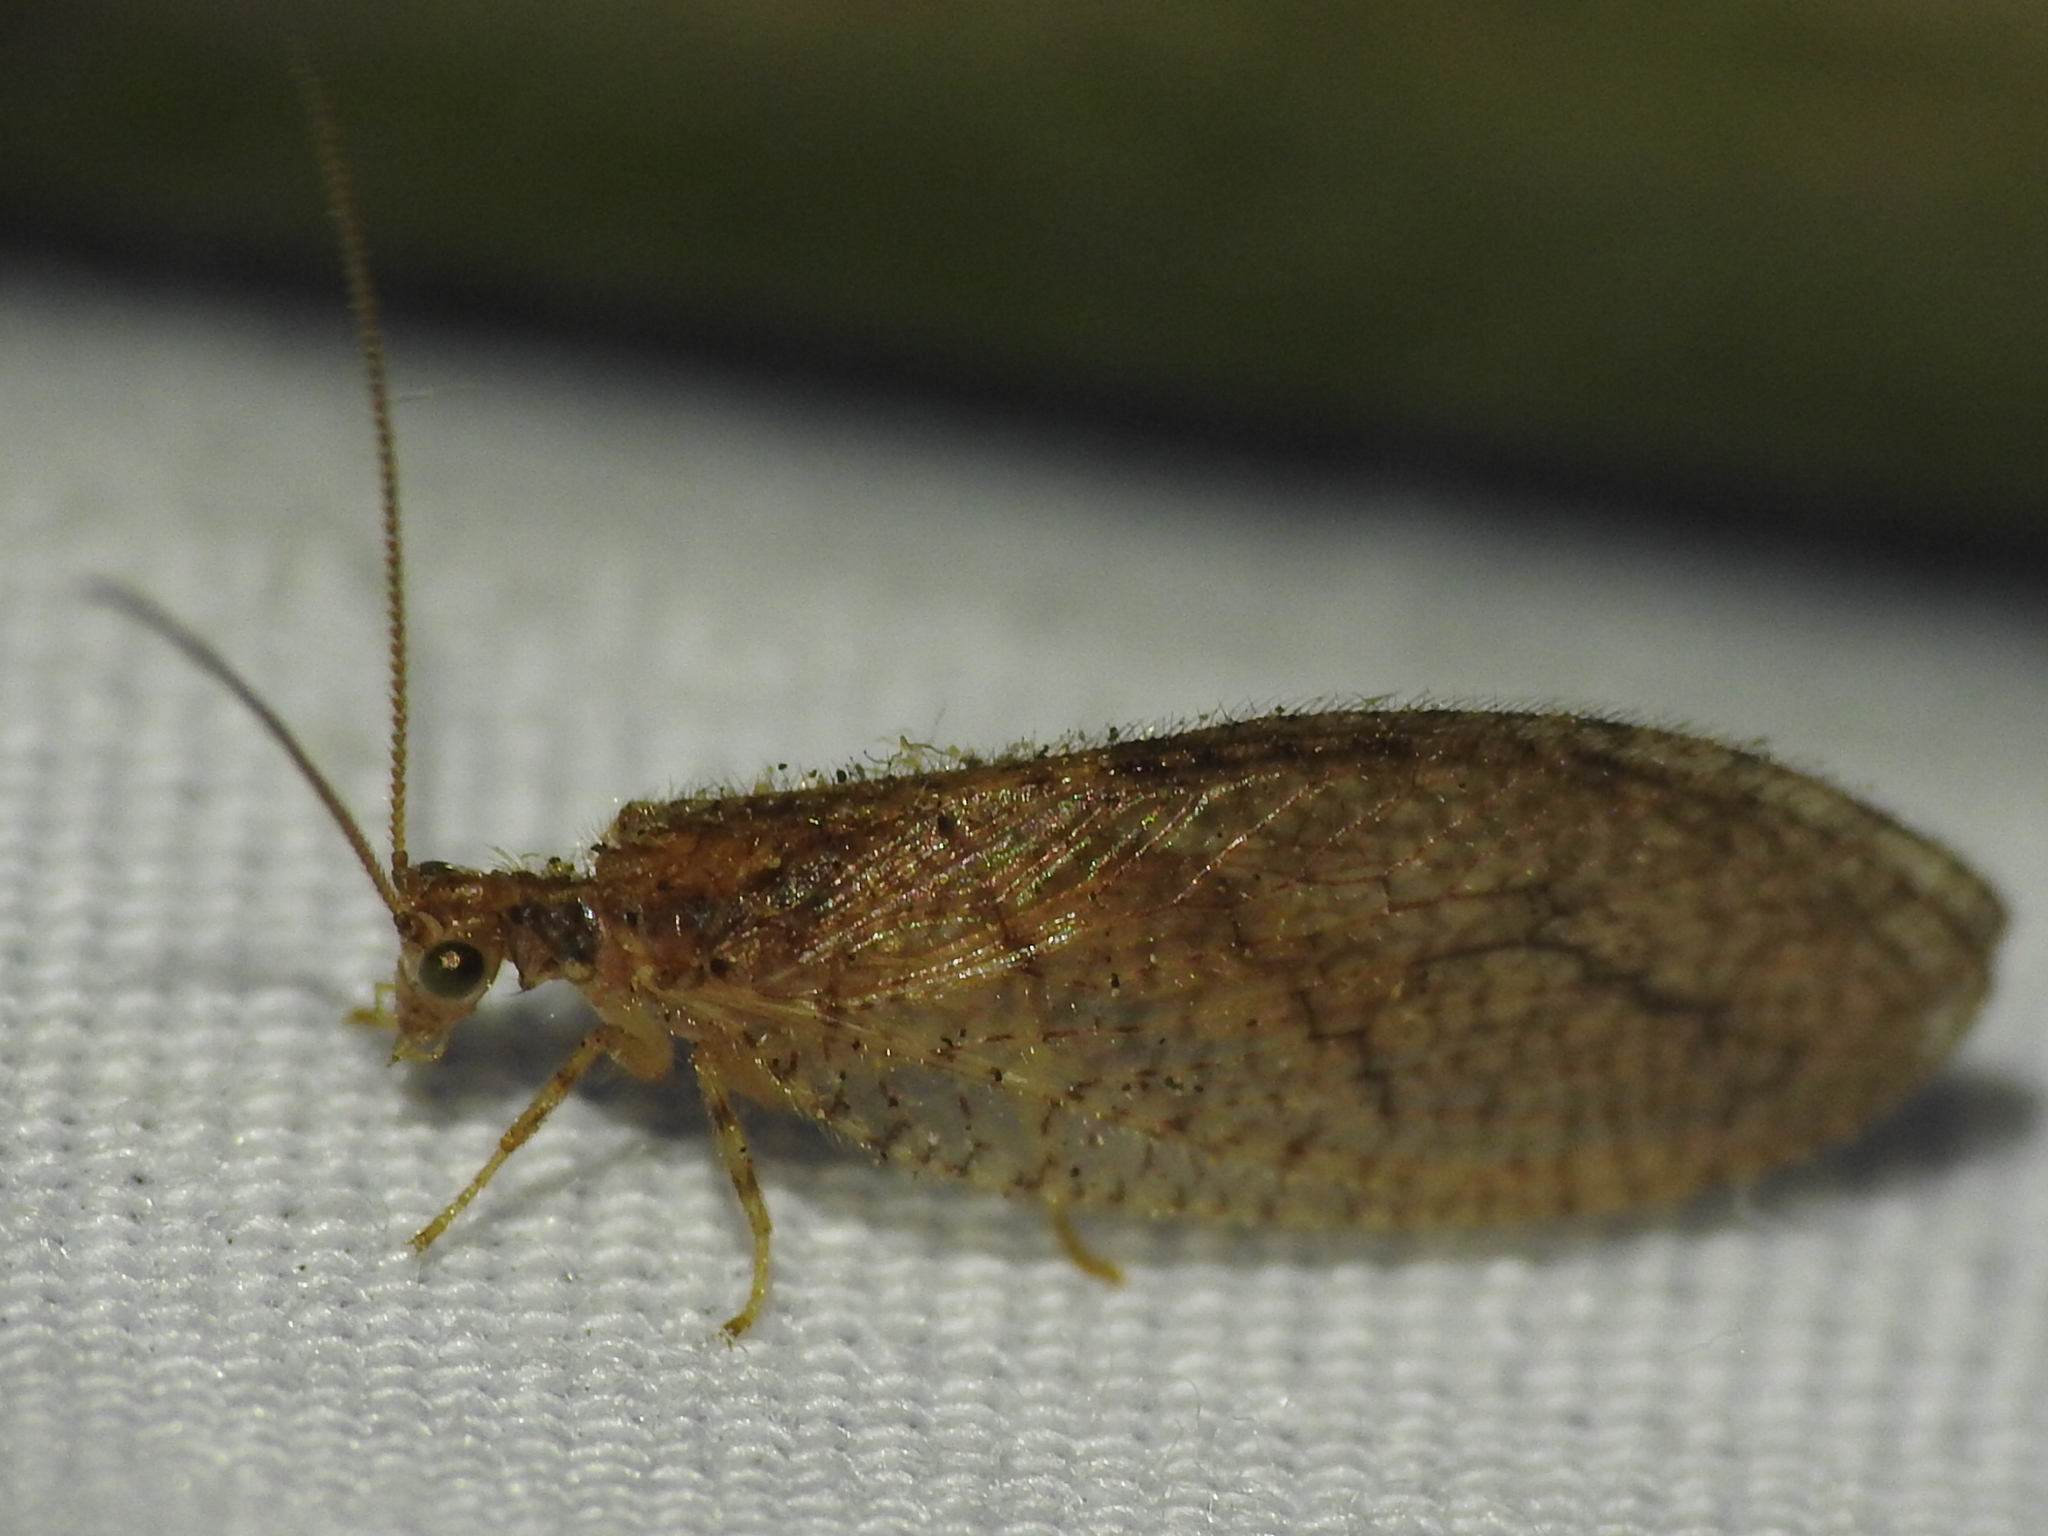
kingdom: Animalia
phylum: Arthropoda
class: Insecta
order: Neuroptera
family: Hemerobiidae
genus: Micromus
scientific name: Micromus posticus
